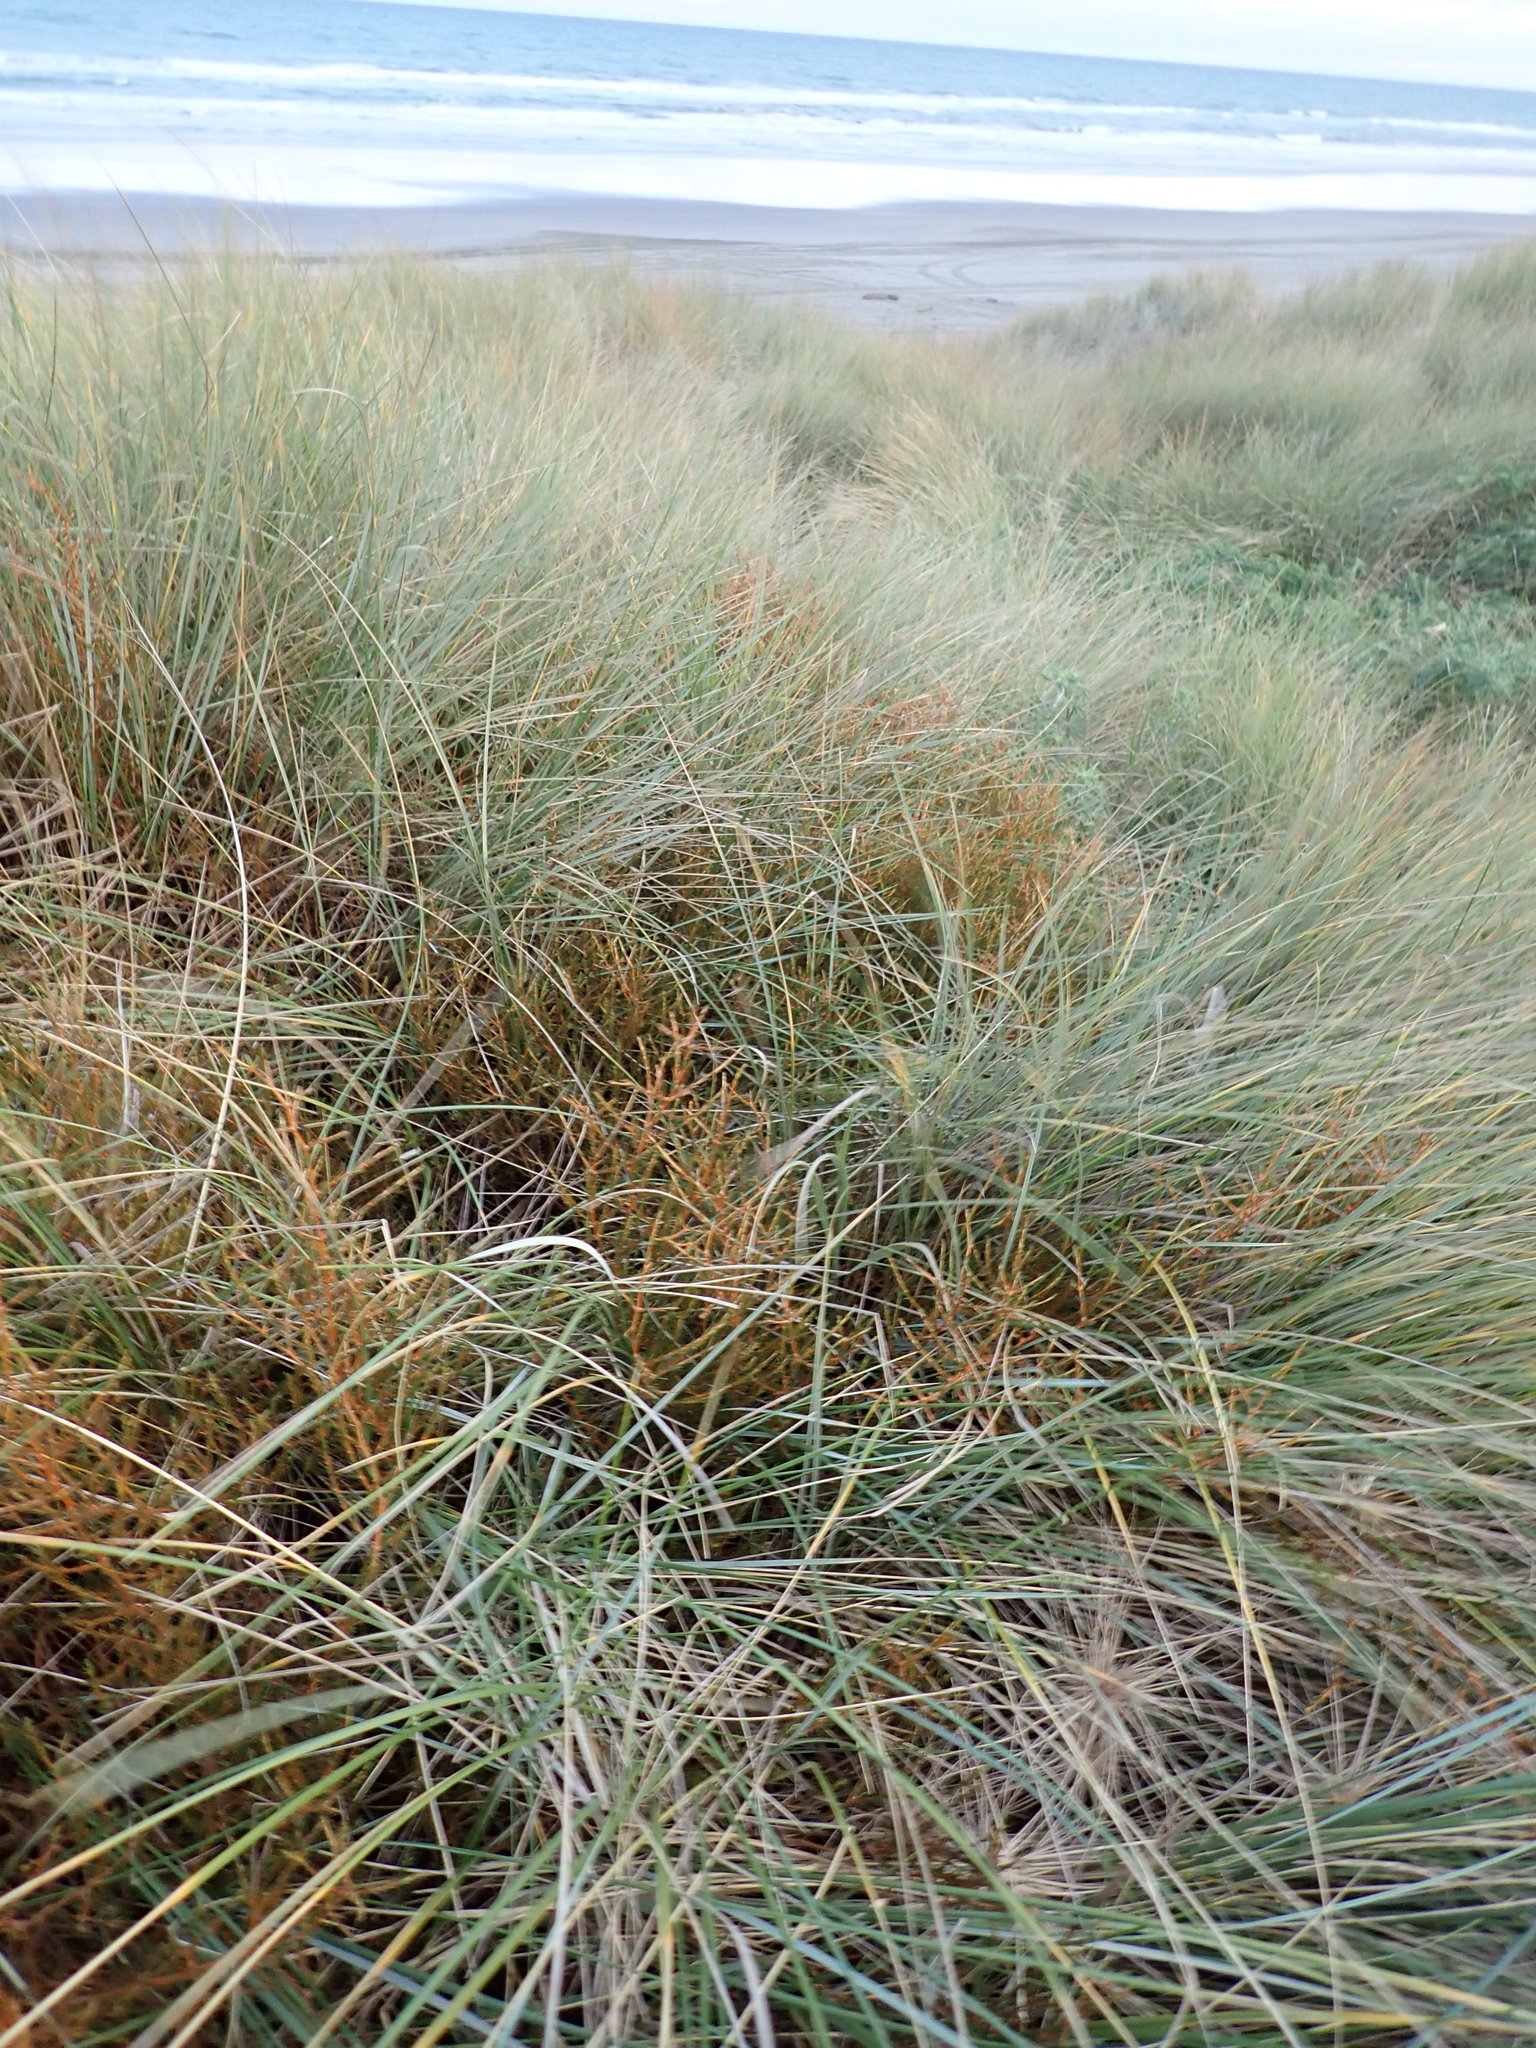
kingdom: Plantae
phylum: Tracheophyta
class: Magnoliopsida
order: Gentianales
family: Rubiaceae
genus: Coprosma
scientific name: Coprosma acerosa
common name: Sand coprosma
